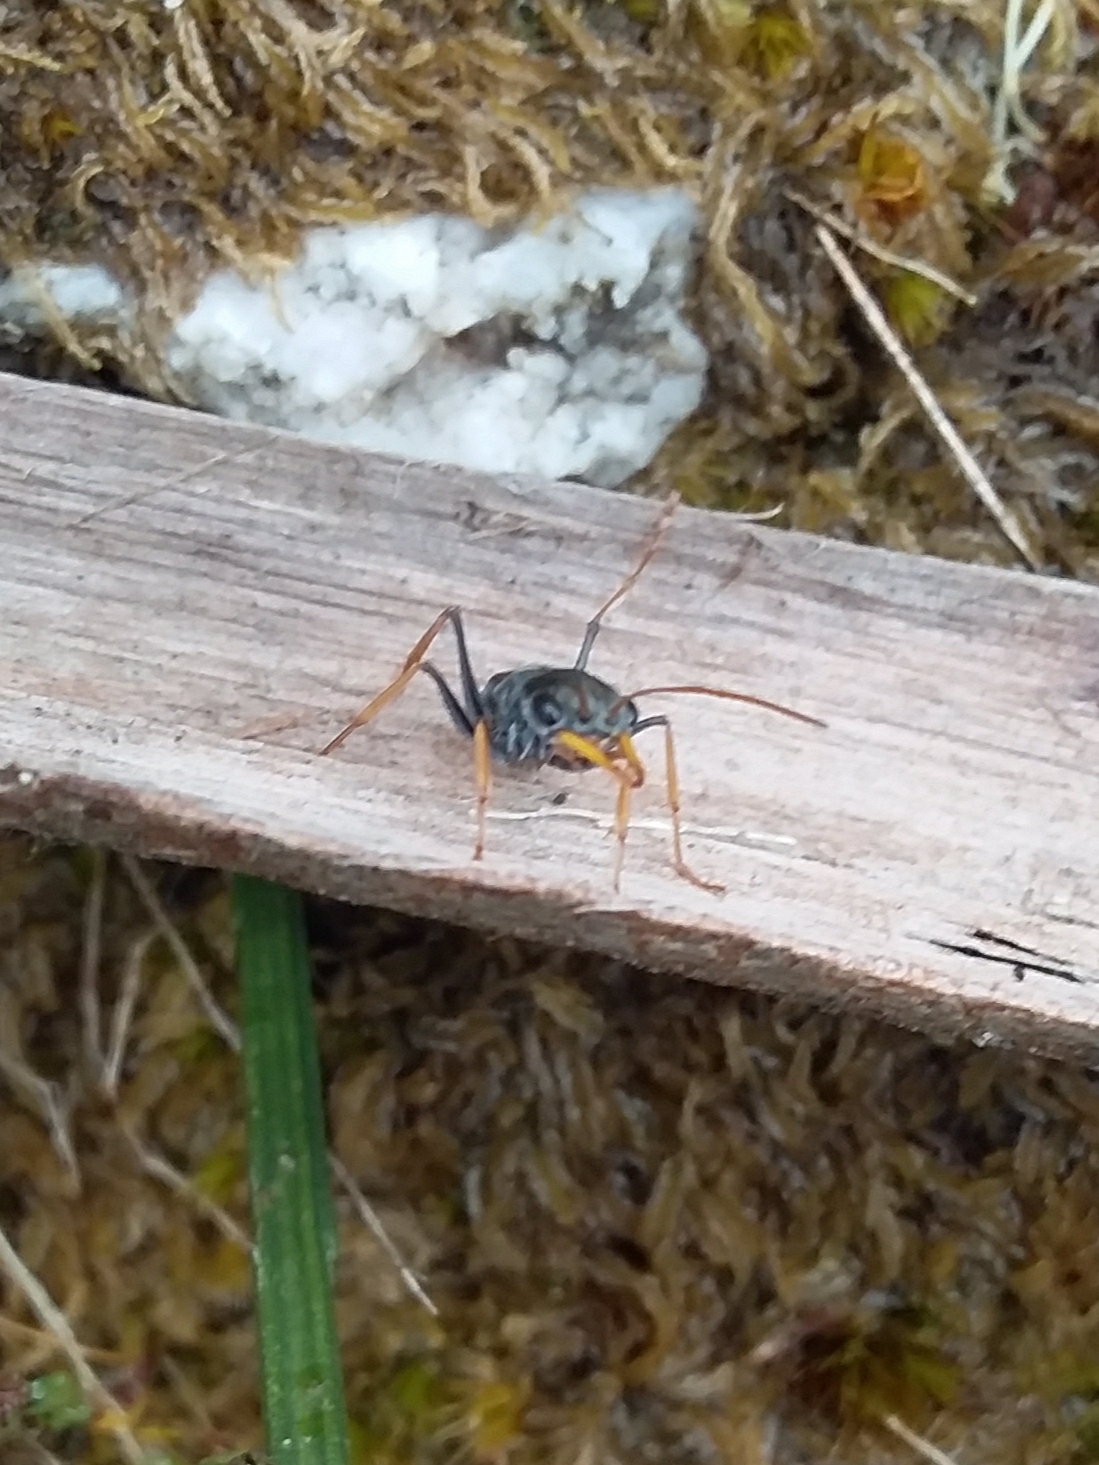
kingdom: Animalia
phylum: Arthropoda
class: Insecta
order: Hymenoptera
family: Formicidae
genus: Myrmecia
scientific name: Myrmecia pilosula
